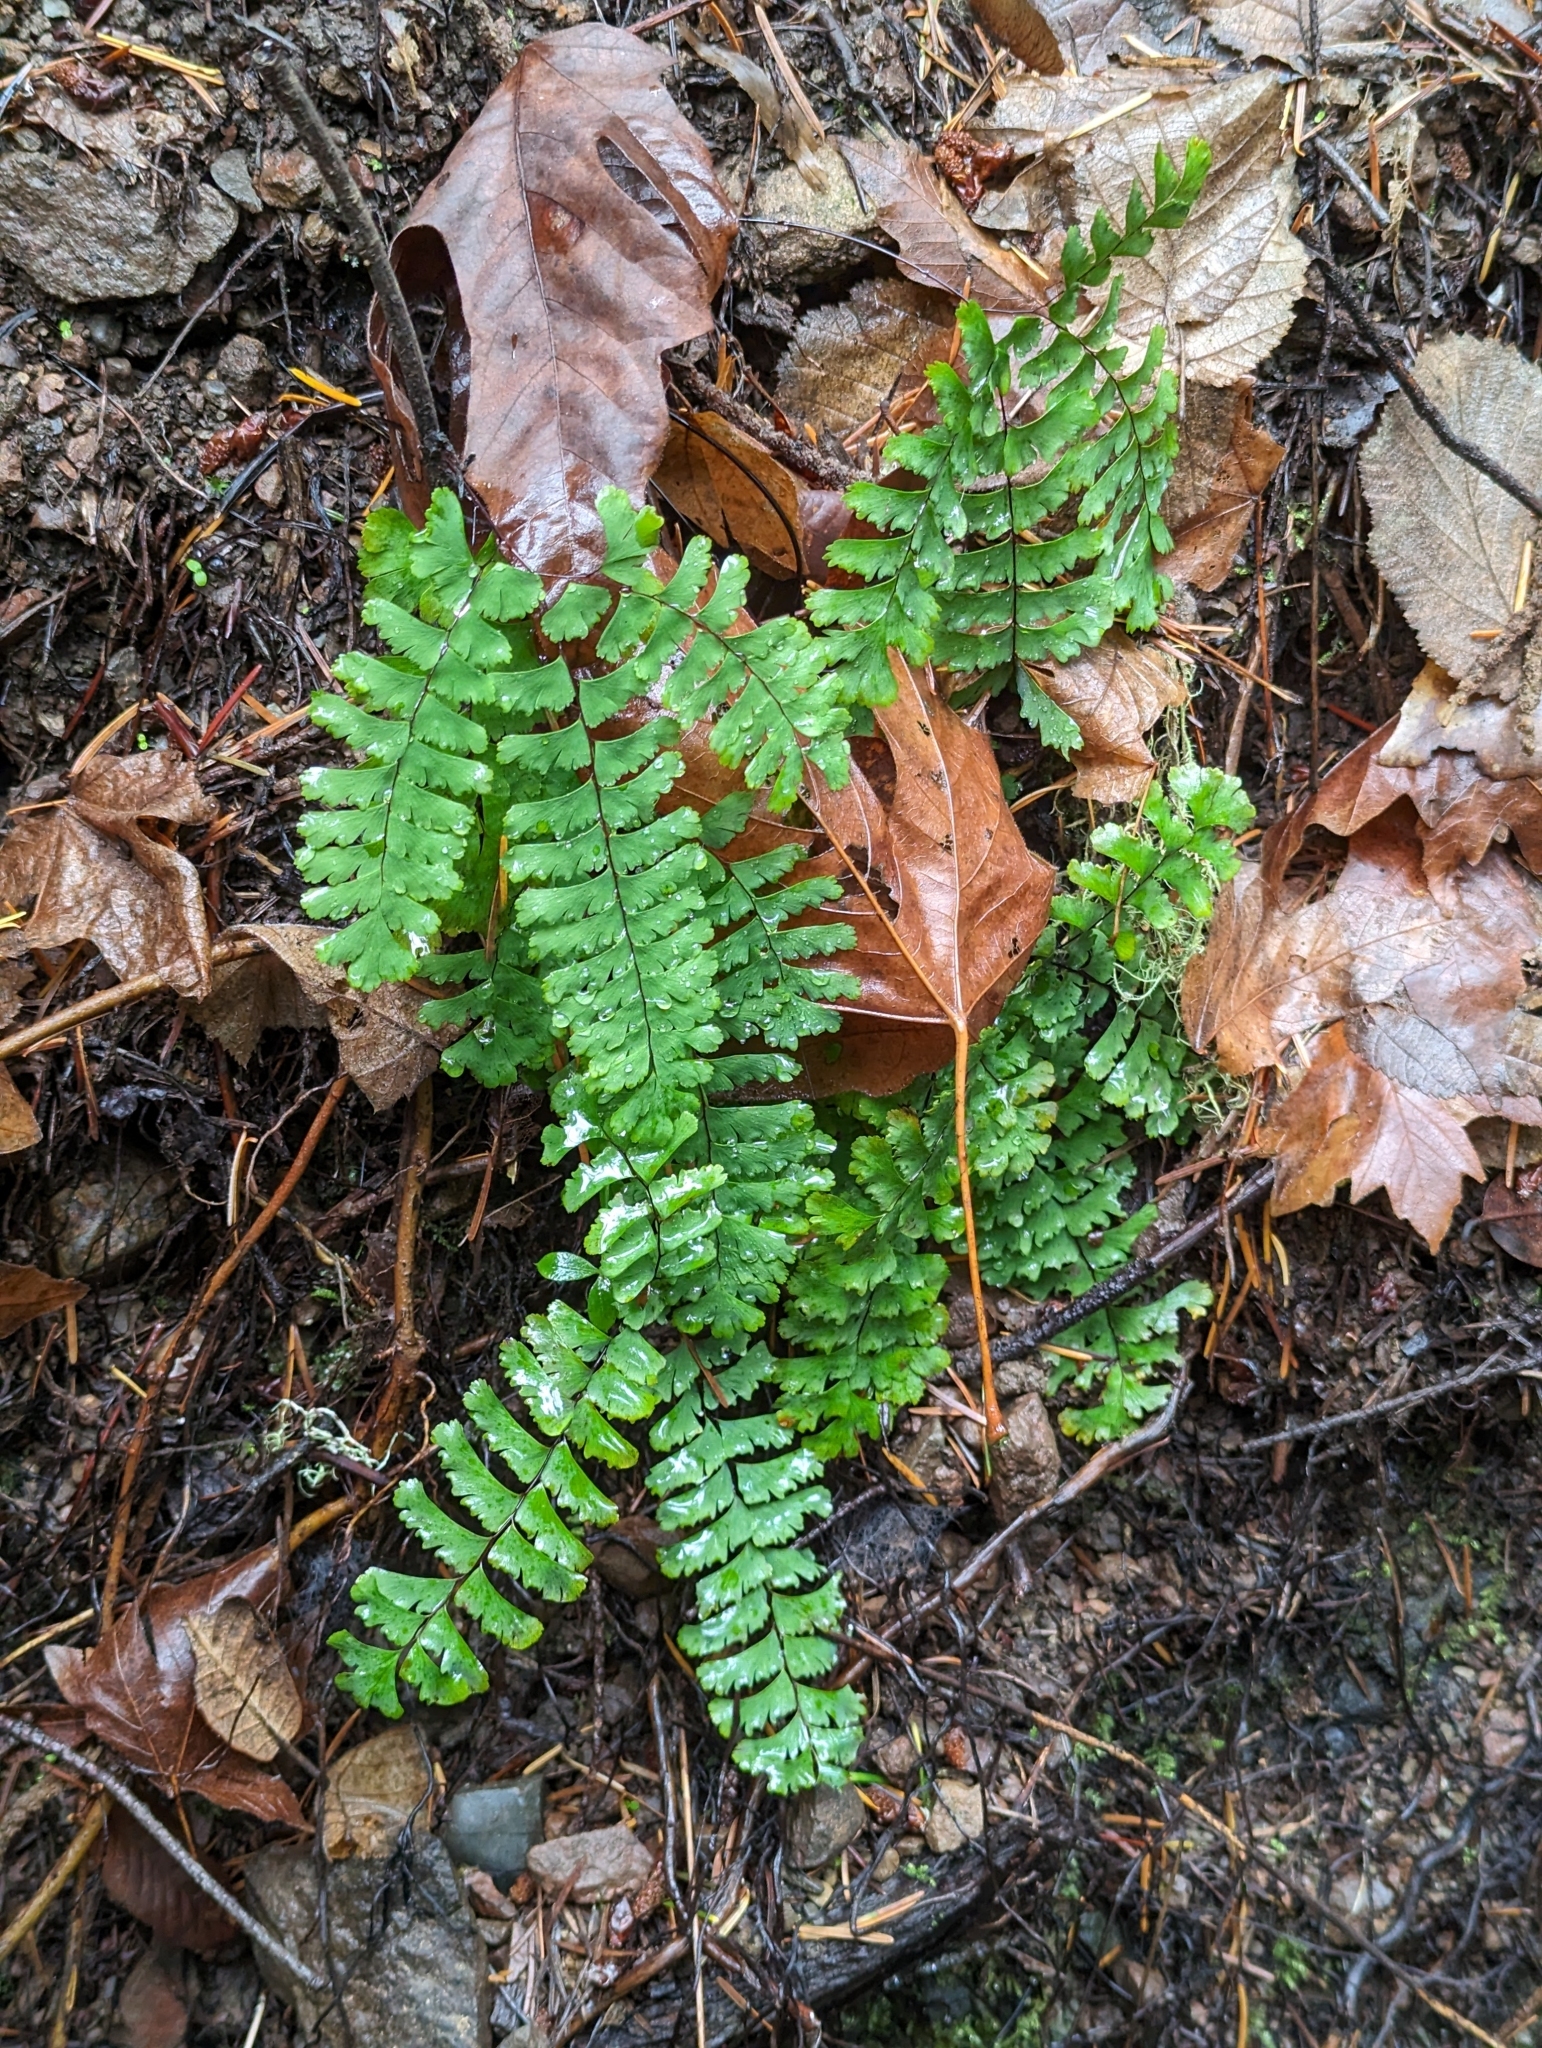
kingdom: Plantae
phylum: Tracheophyta
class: Polypodiopsida
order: Polypodiales
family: Pteridaceae
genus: Adiantum
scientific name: Adiantum aleuticum
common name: Aleutian maidenhair fern
